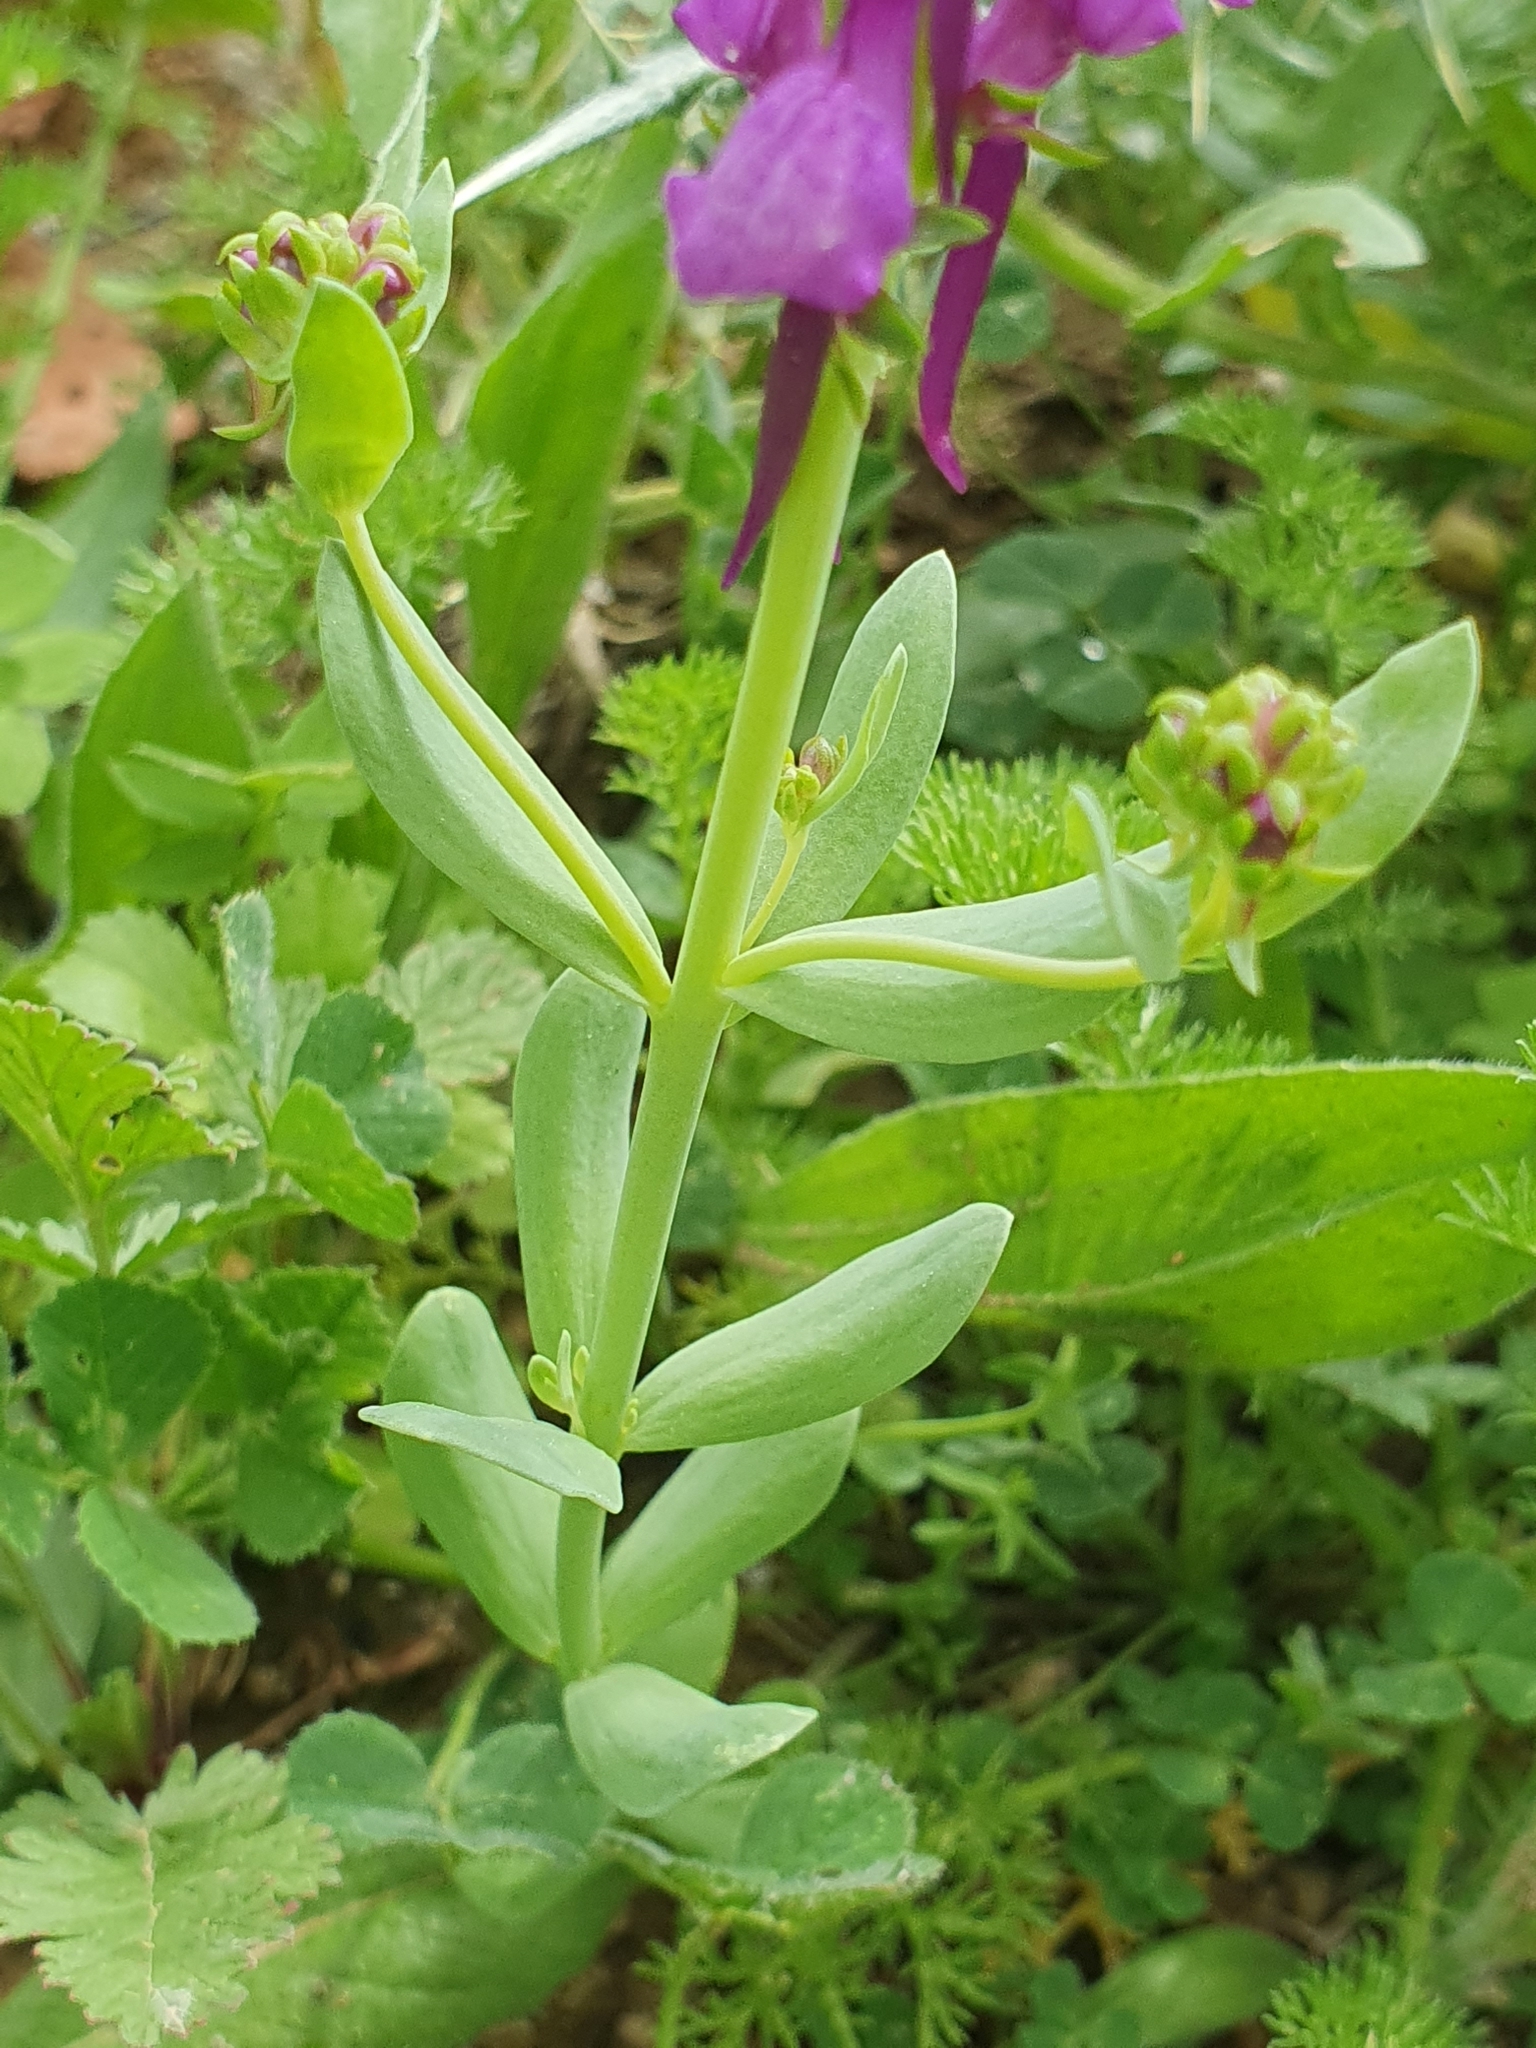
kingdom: Plantae
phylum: Tracheophyta
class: Magnoliopsida
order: Lamiales
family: Plantaginaceae
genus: Linaria
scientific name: Linaria virgata
